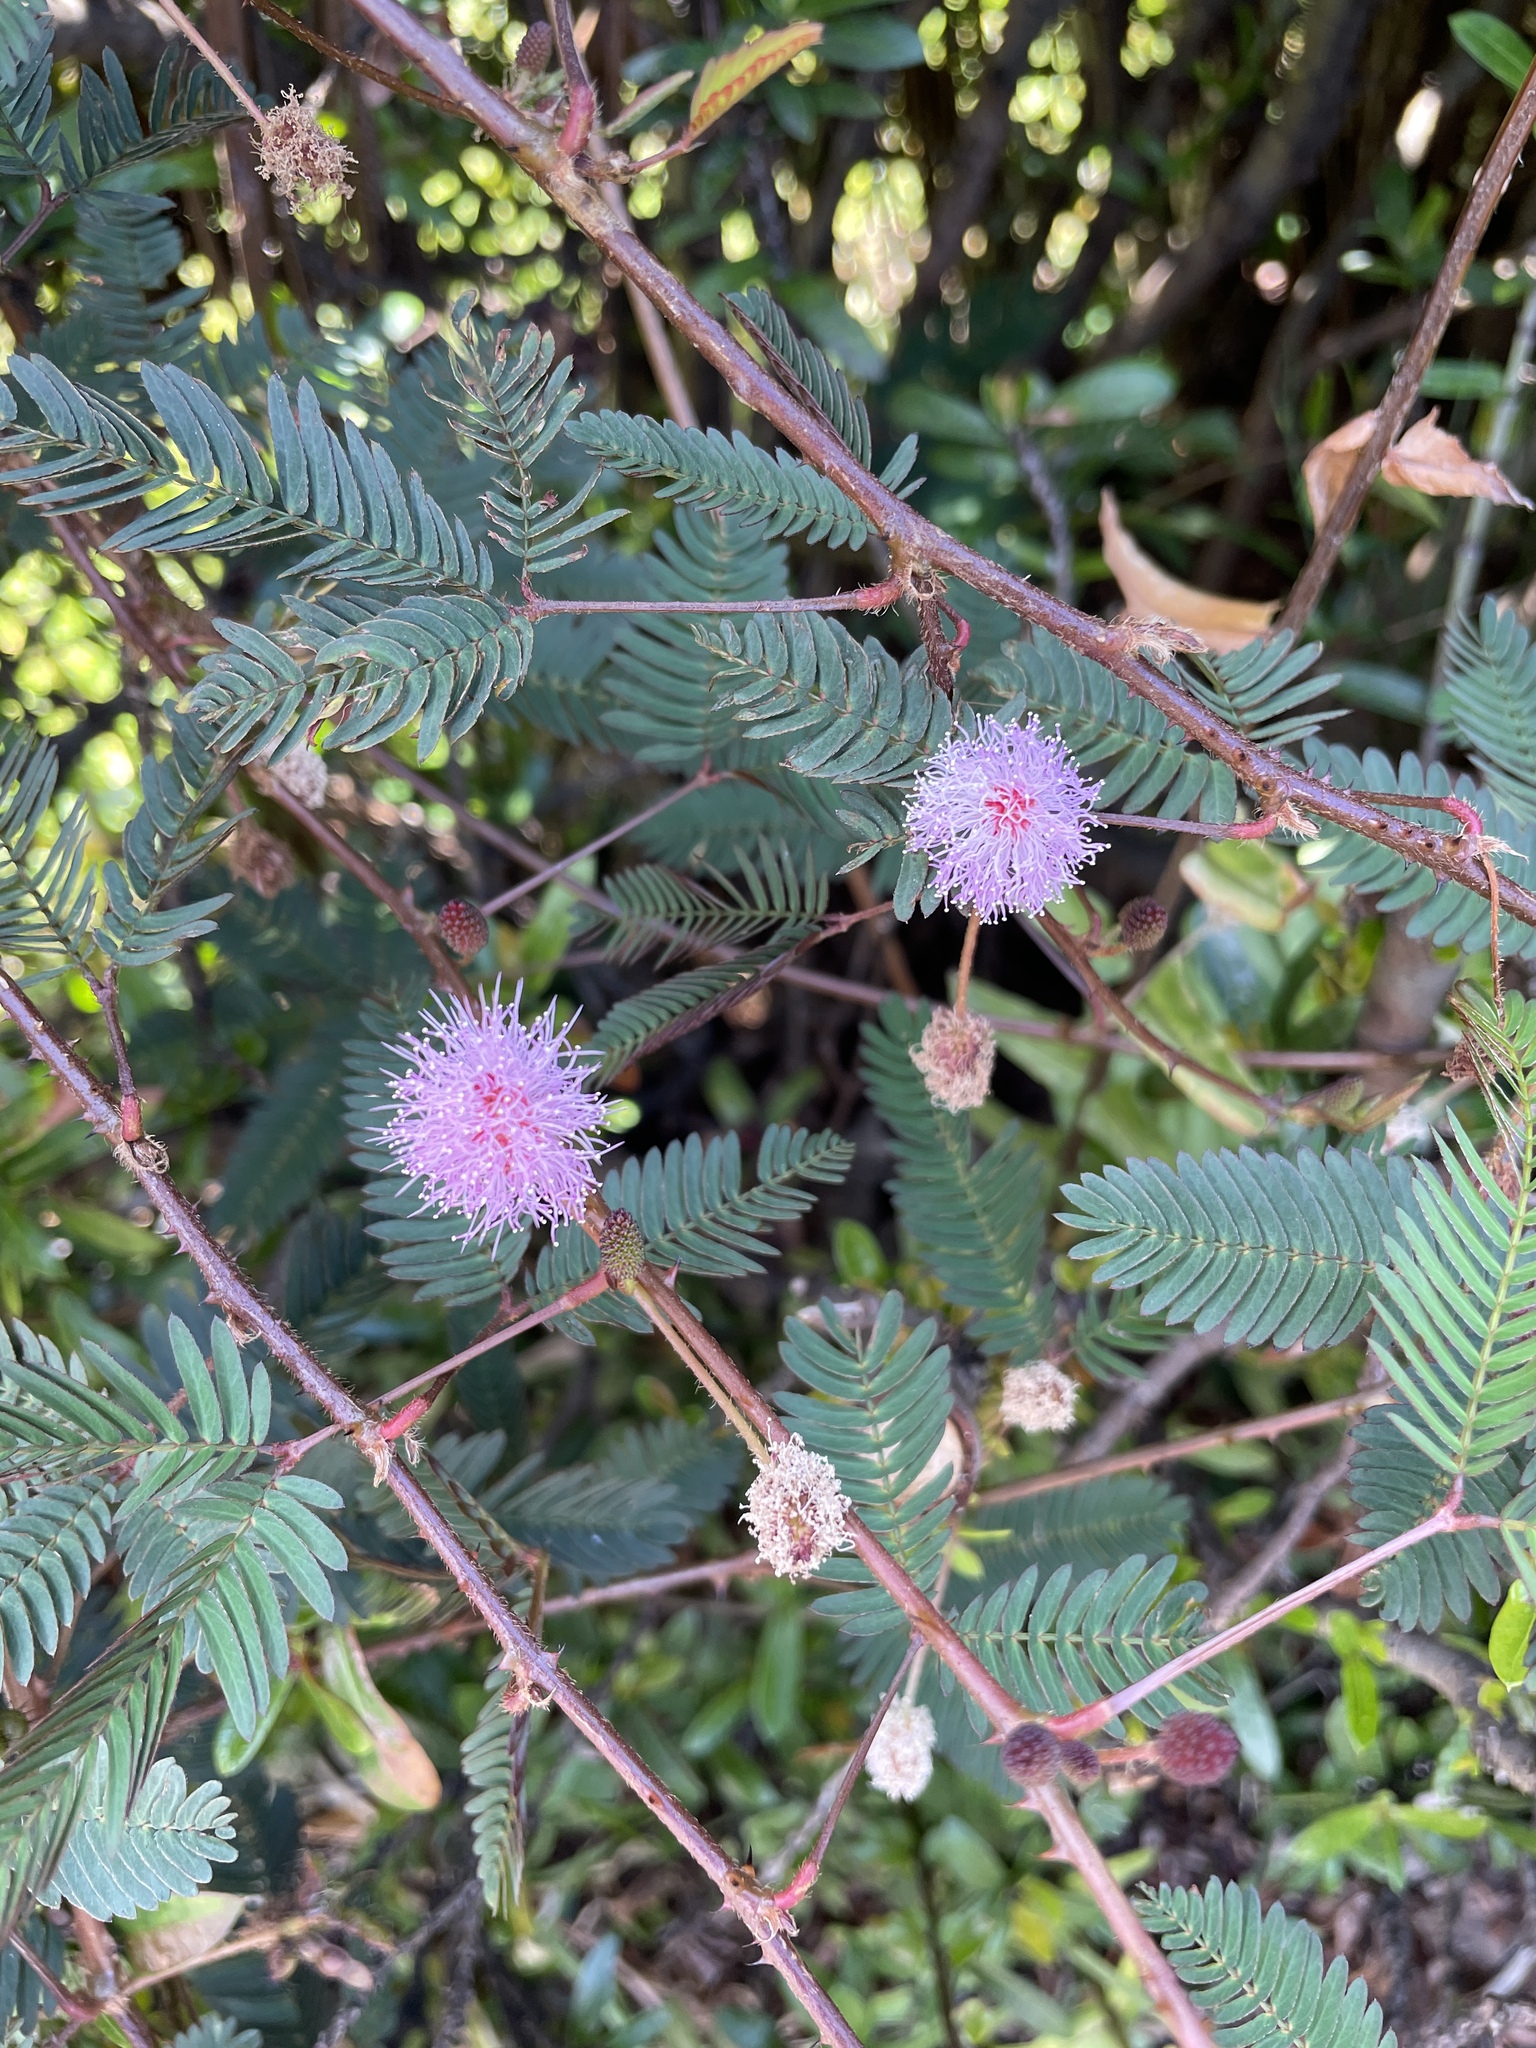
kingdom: Plantae
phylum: Tracheophyta
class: Magnoliopsida
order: Fabales
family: Fabaceae
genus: Mimosa
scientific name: Mimosa pudica
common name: Sensitive plant
